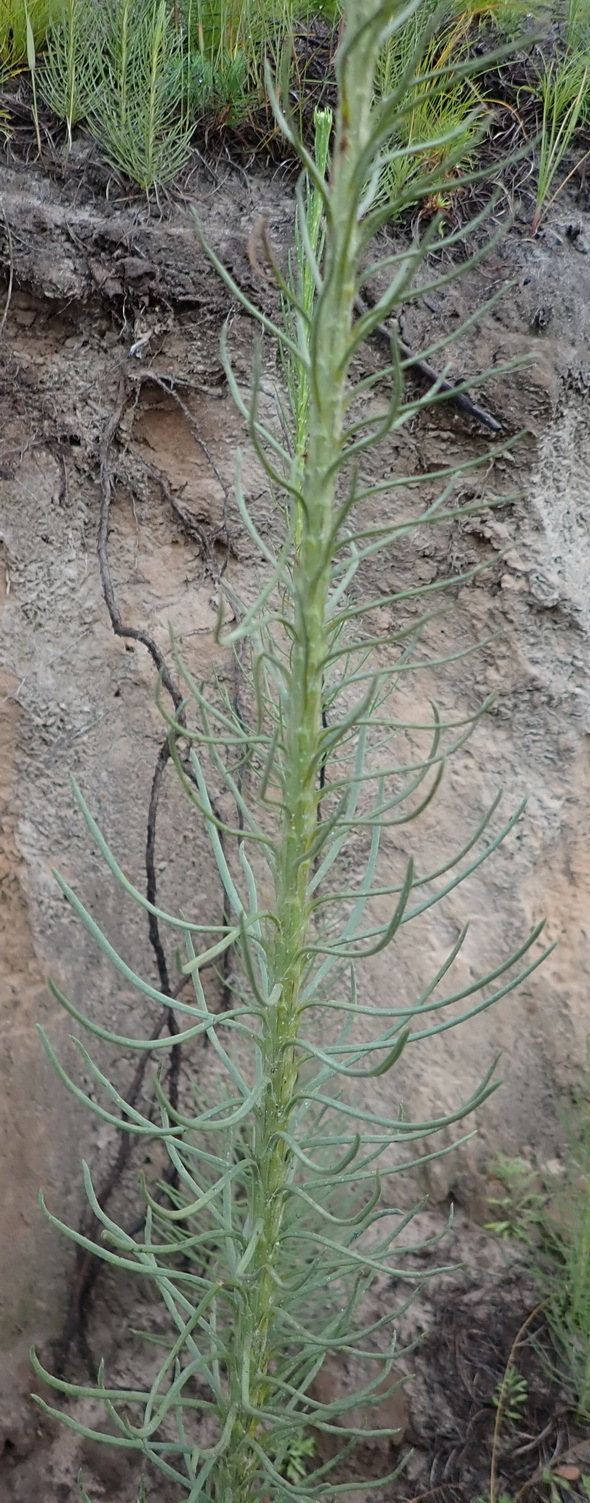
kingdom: Plantae
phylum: Tracheophyta
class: Magnoliopsida
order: Asterales
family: Asteraceae
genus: Athanasia
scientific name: Athanasia linifolia
